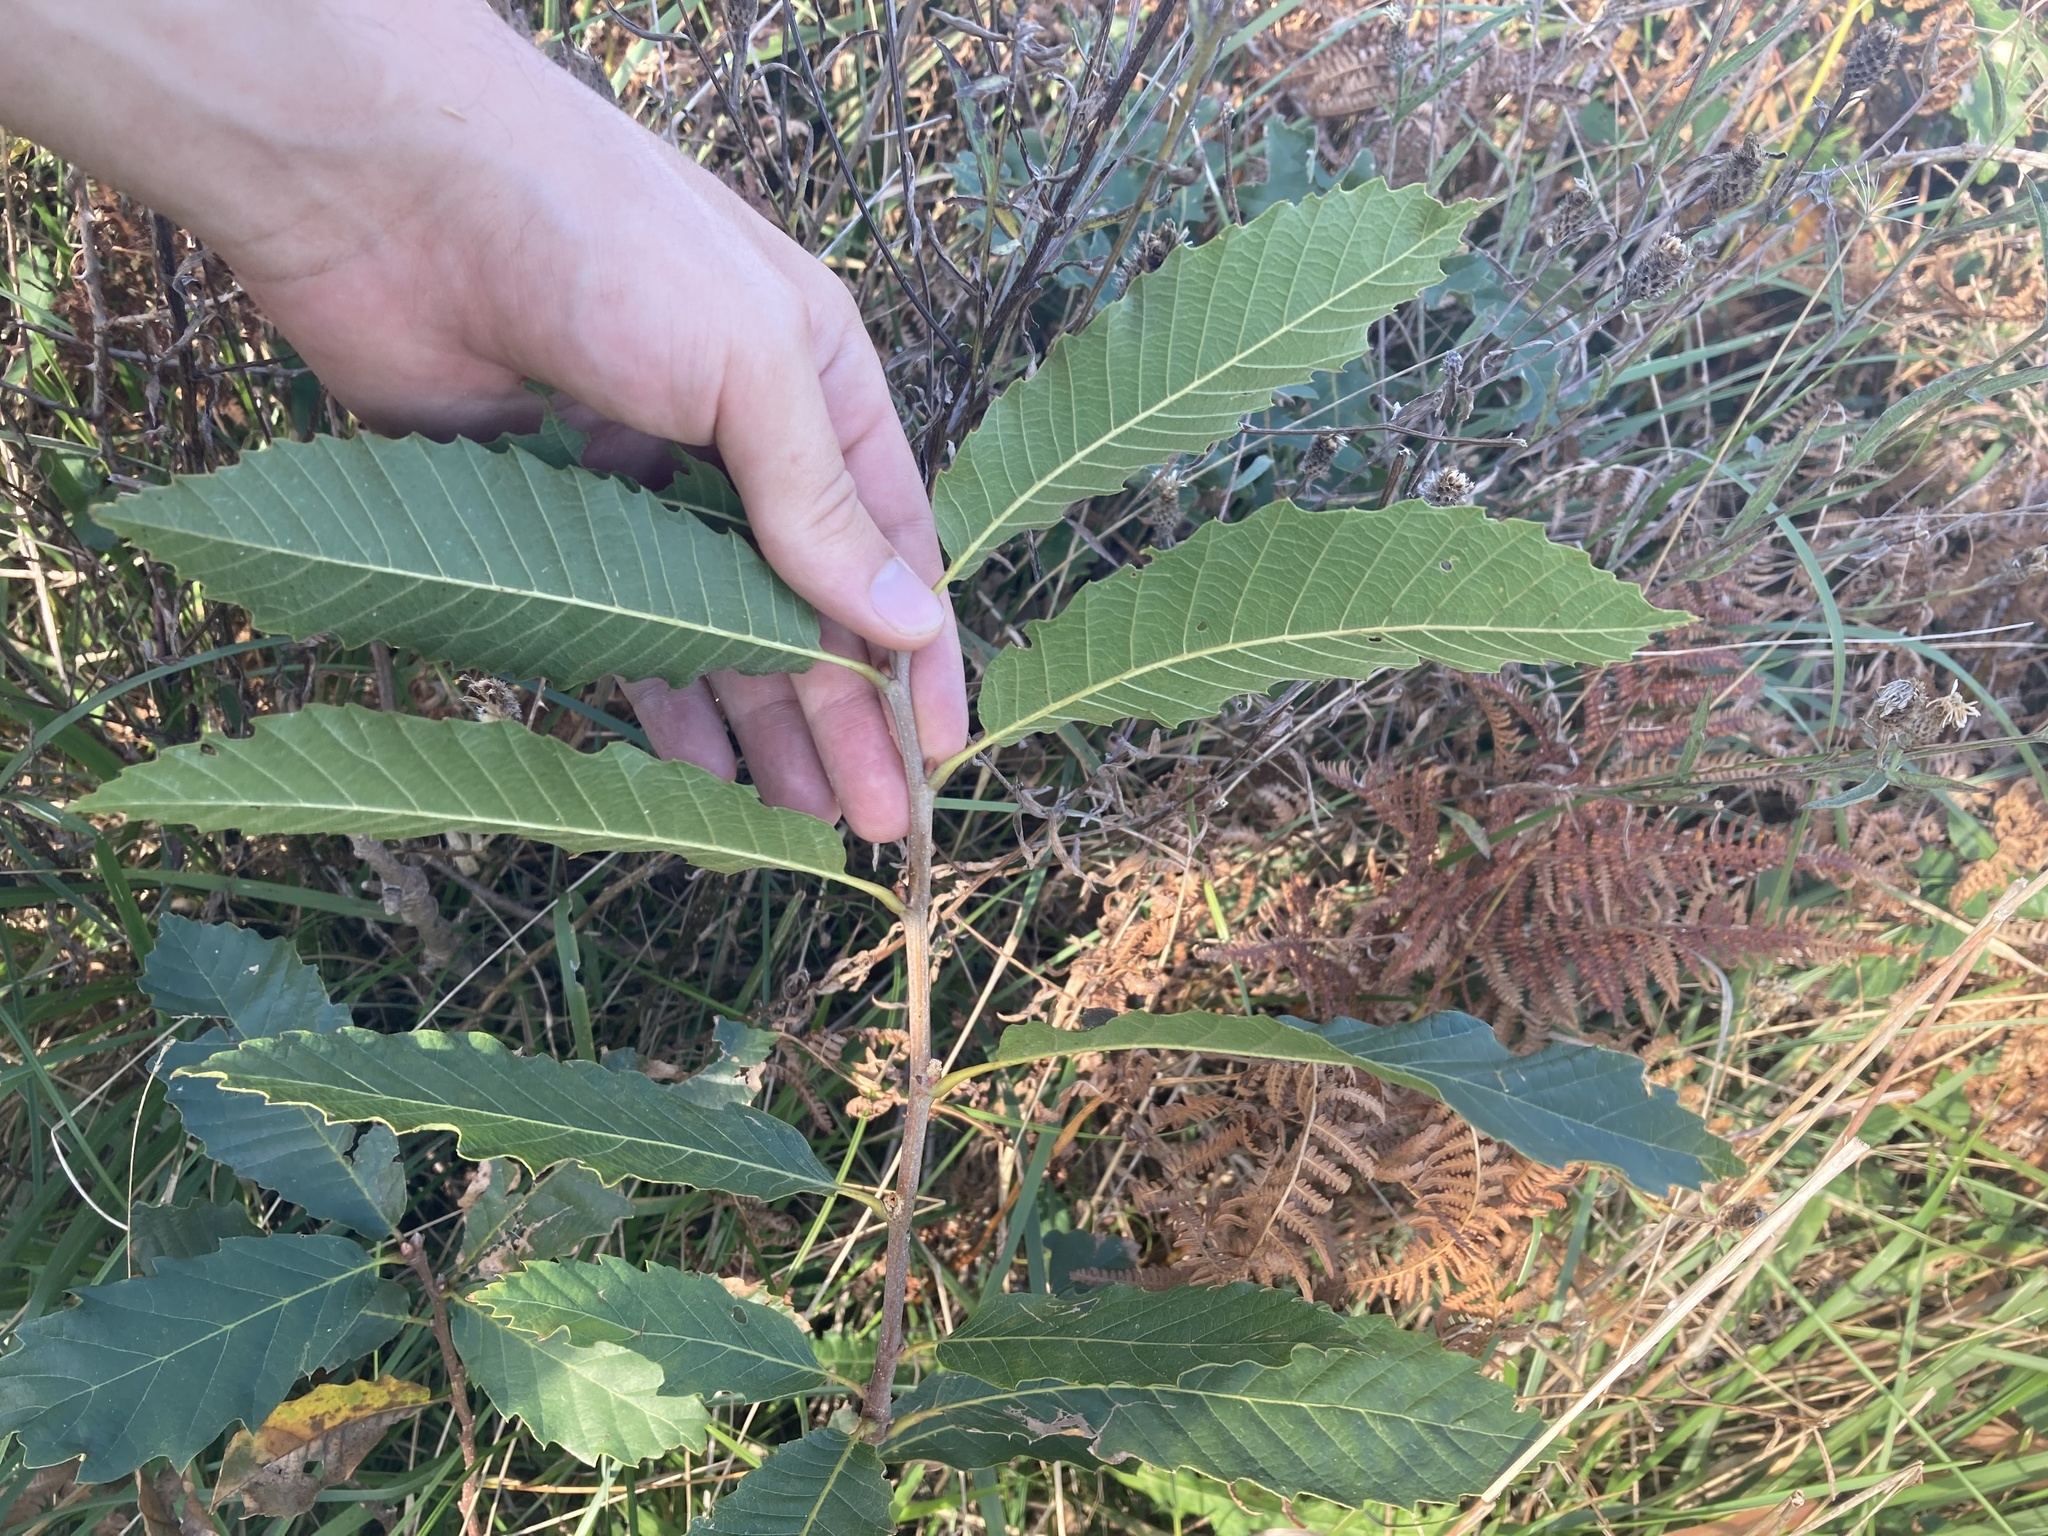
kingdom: Plantae
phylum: Tracheophyta
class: Magnoliopsida
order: Fagales
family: Fagaceae
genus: Castanea
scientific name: Castanea sativa
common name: Sweet chestnut
